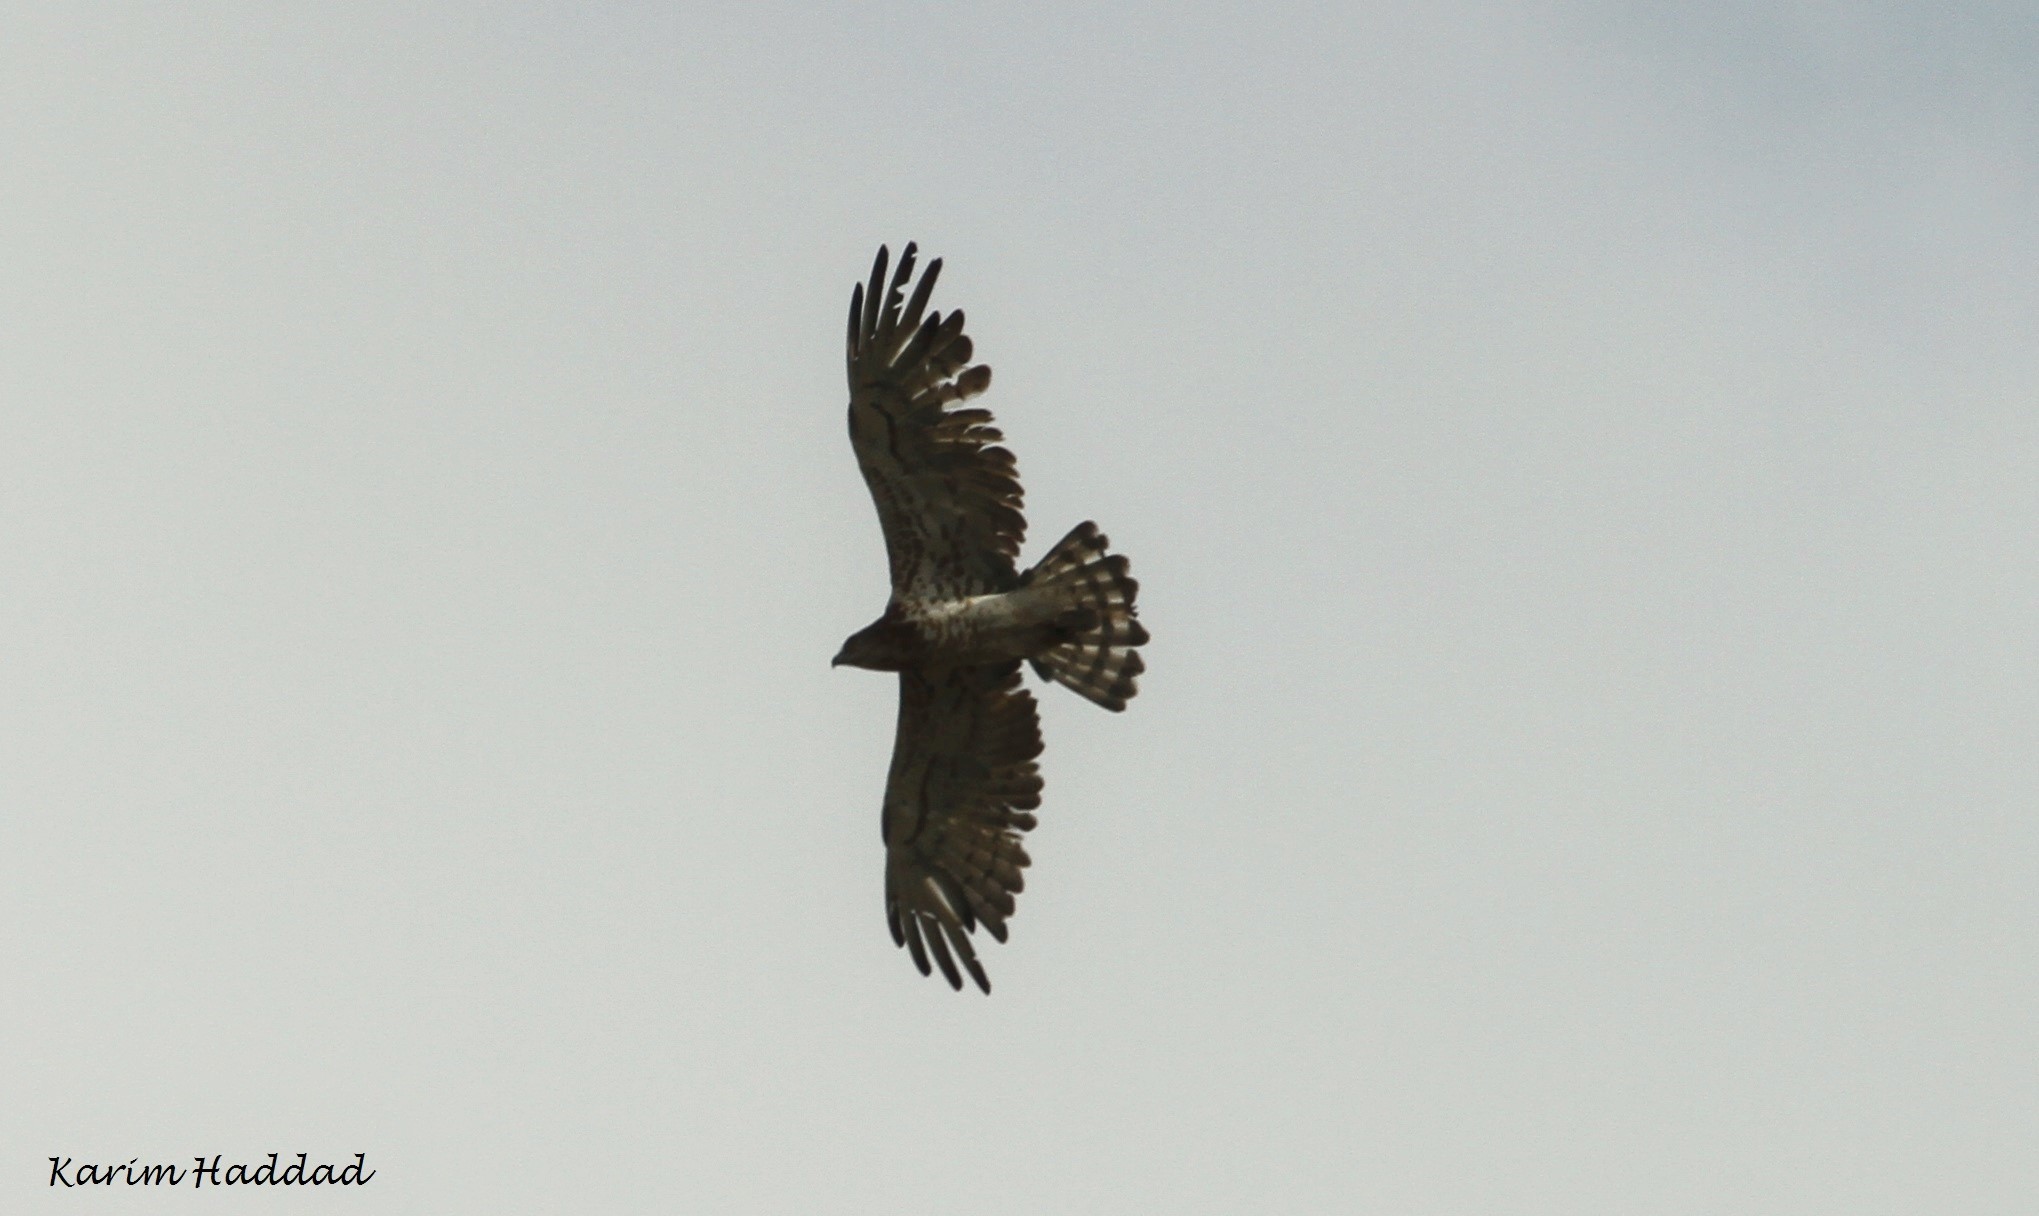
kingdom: Animalia
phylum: Chordata
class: Aves
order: Accipitriformes
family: Accipitridae
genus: Circaetus
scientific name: Circaetus gallicus
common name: Short-toed snake eagle
